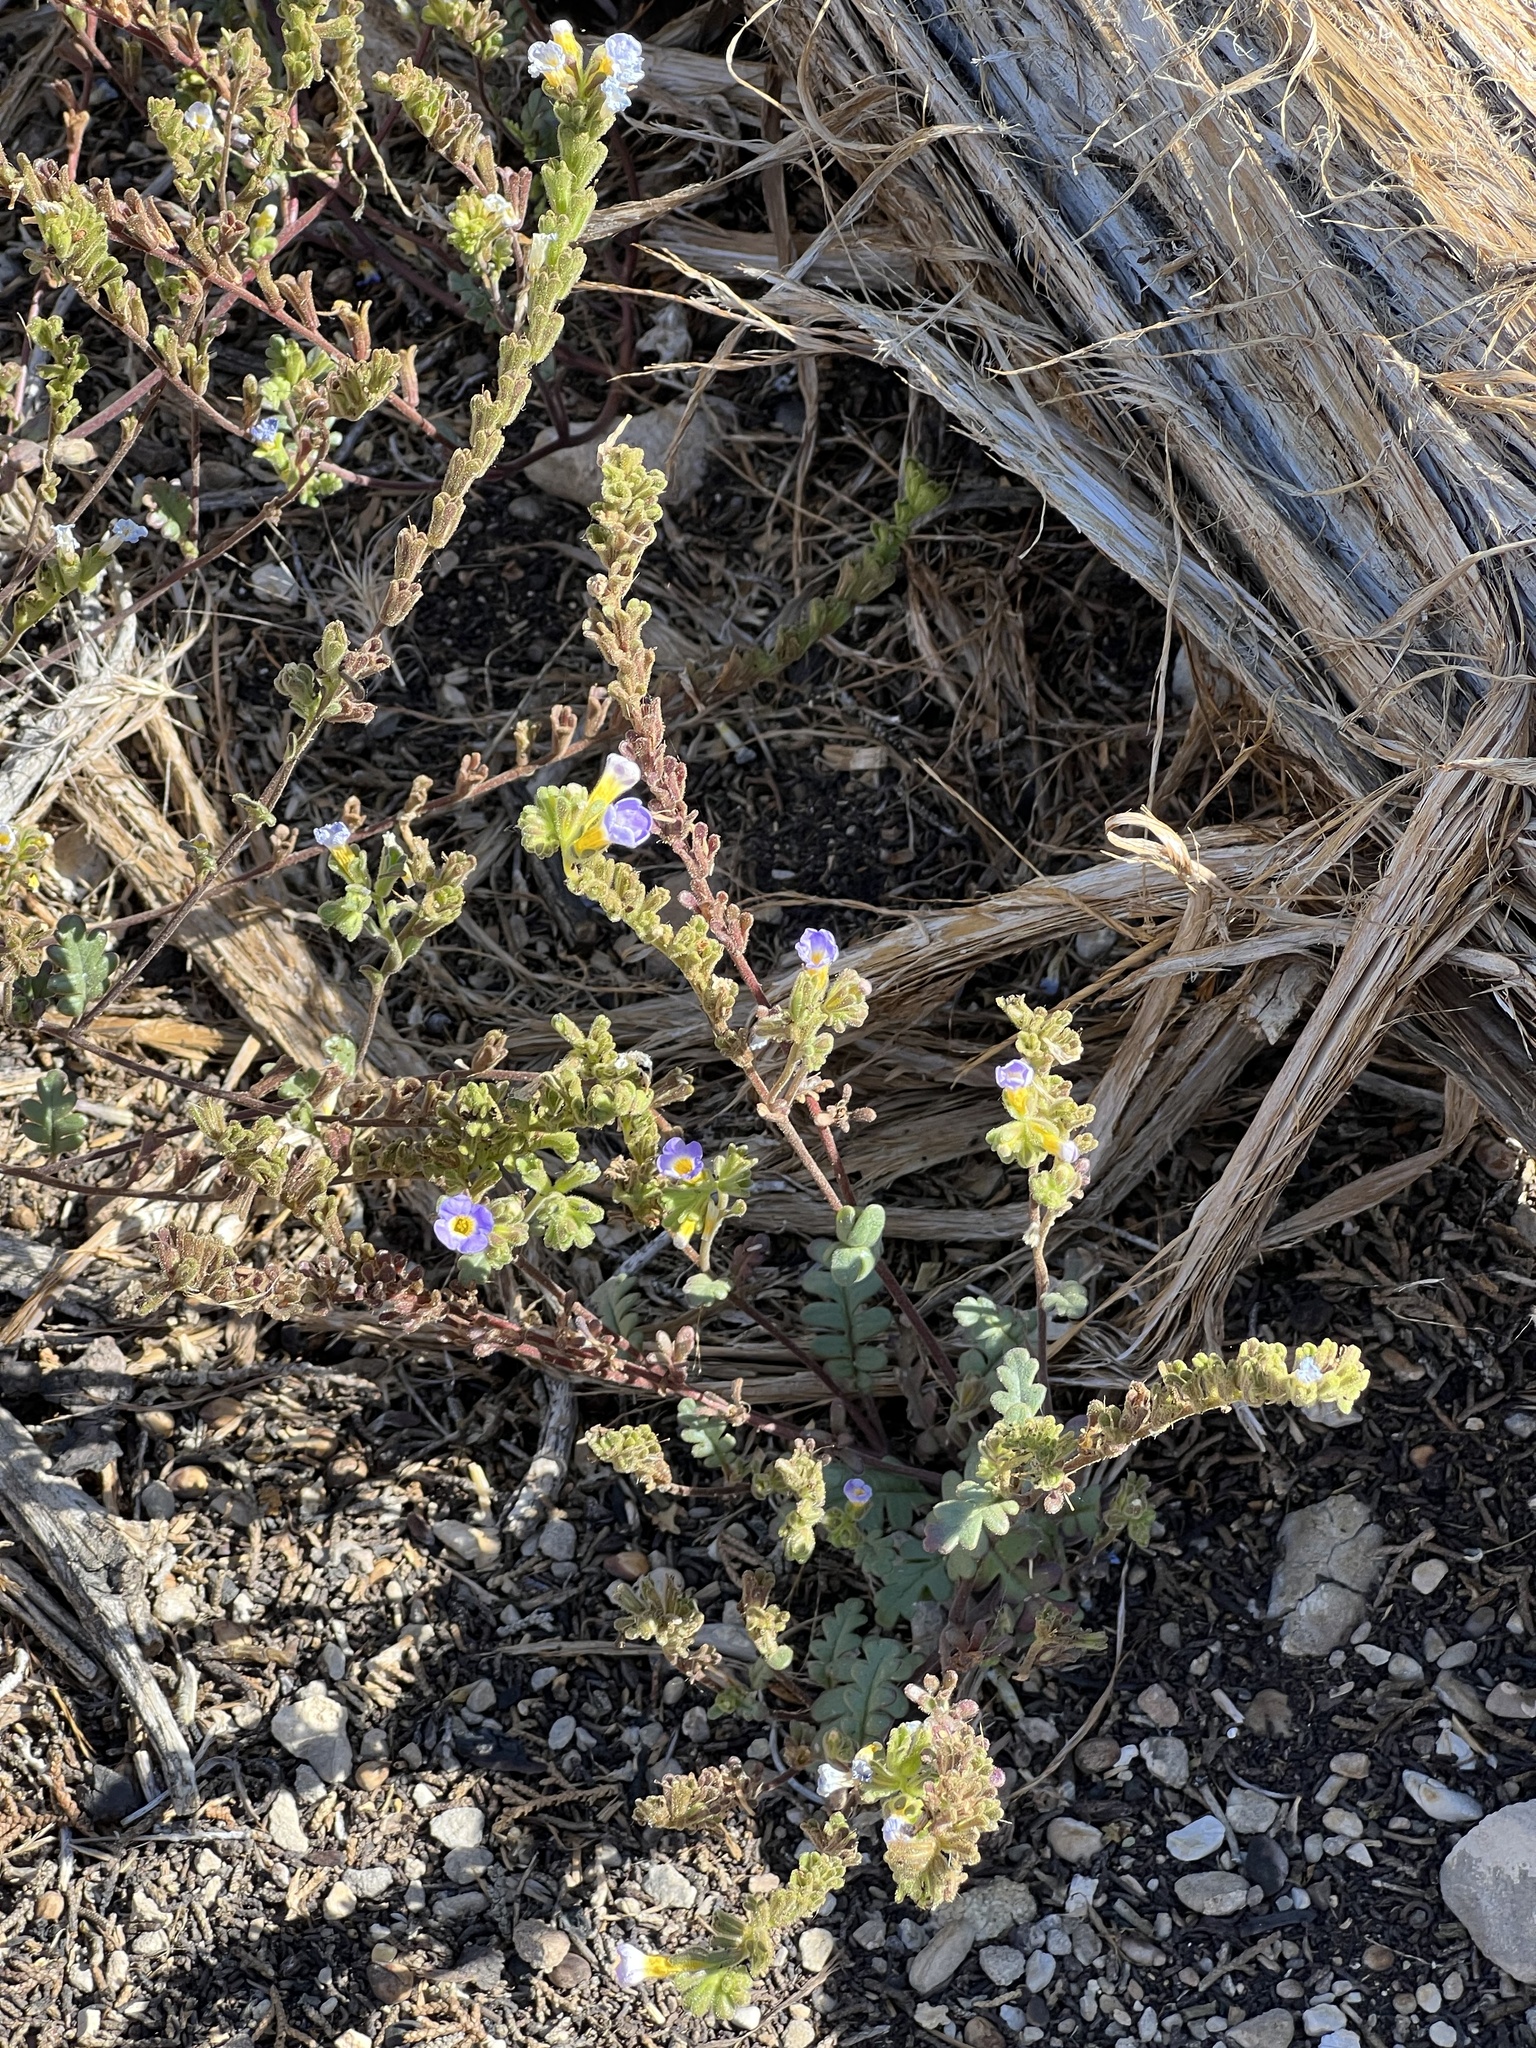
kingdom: Plantae
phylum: Tracheophyta
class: Magnoliopsida
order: Boraginales
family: Hydrophyllaceae
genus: Phacelia
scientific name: Phacelia fremontii
